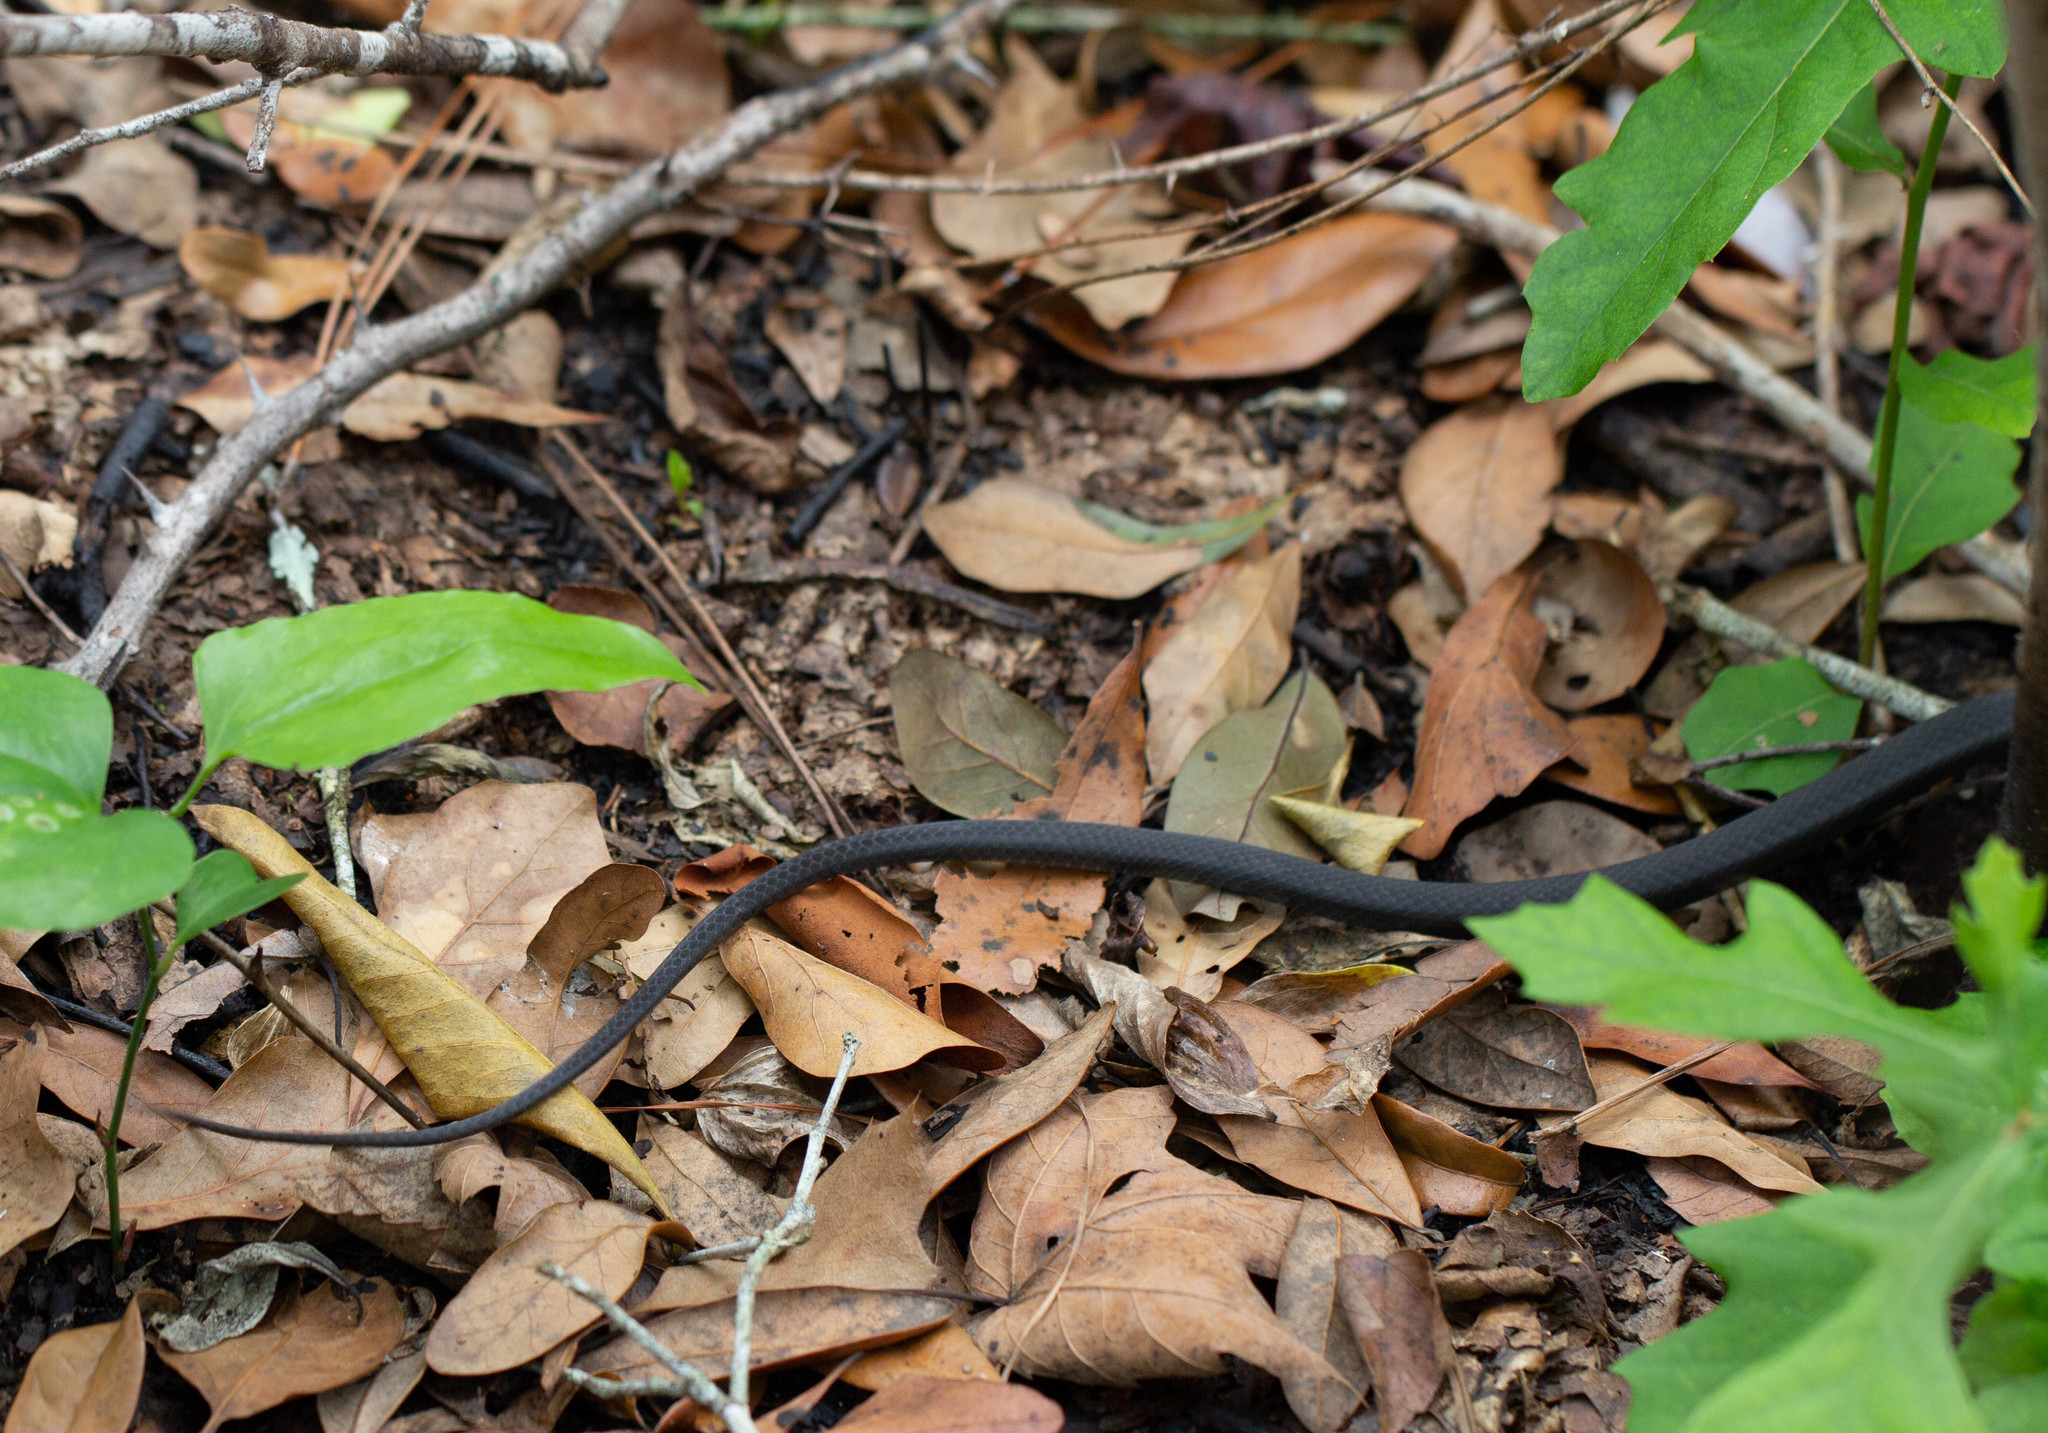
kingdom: Animalia
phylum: Chordata
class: Squamata
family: Colubridae
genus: Coluber
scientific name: Coluber constrictor
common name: Eastern racer
